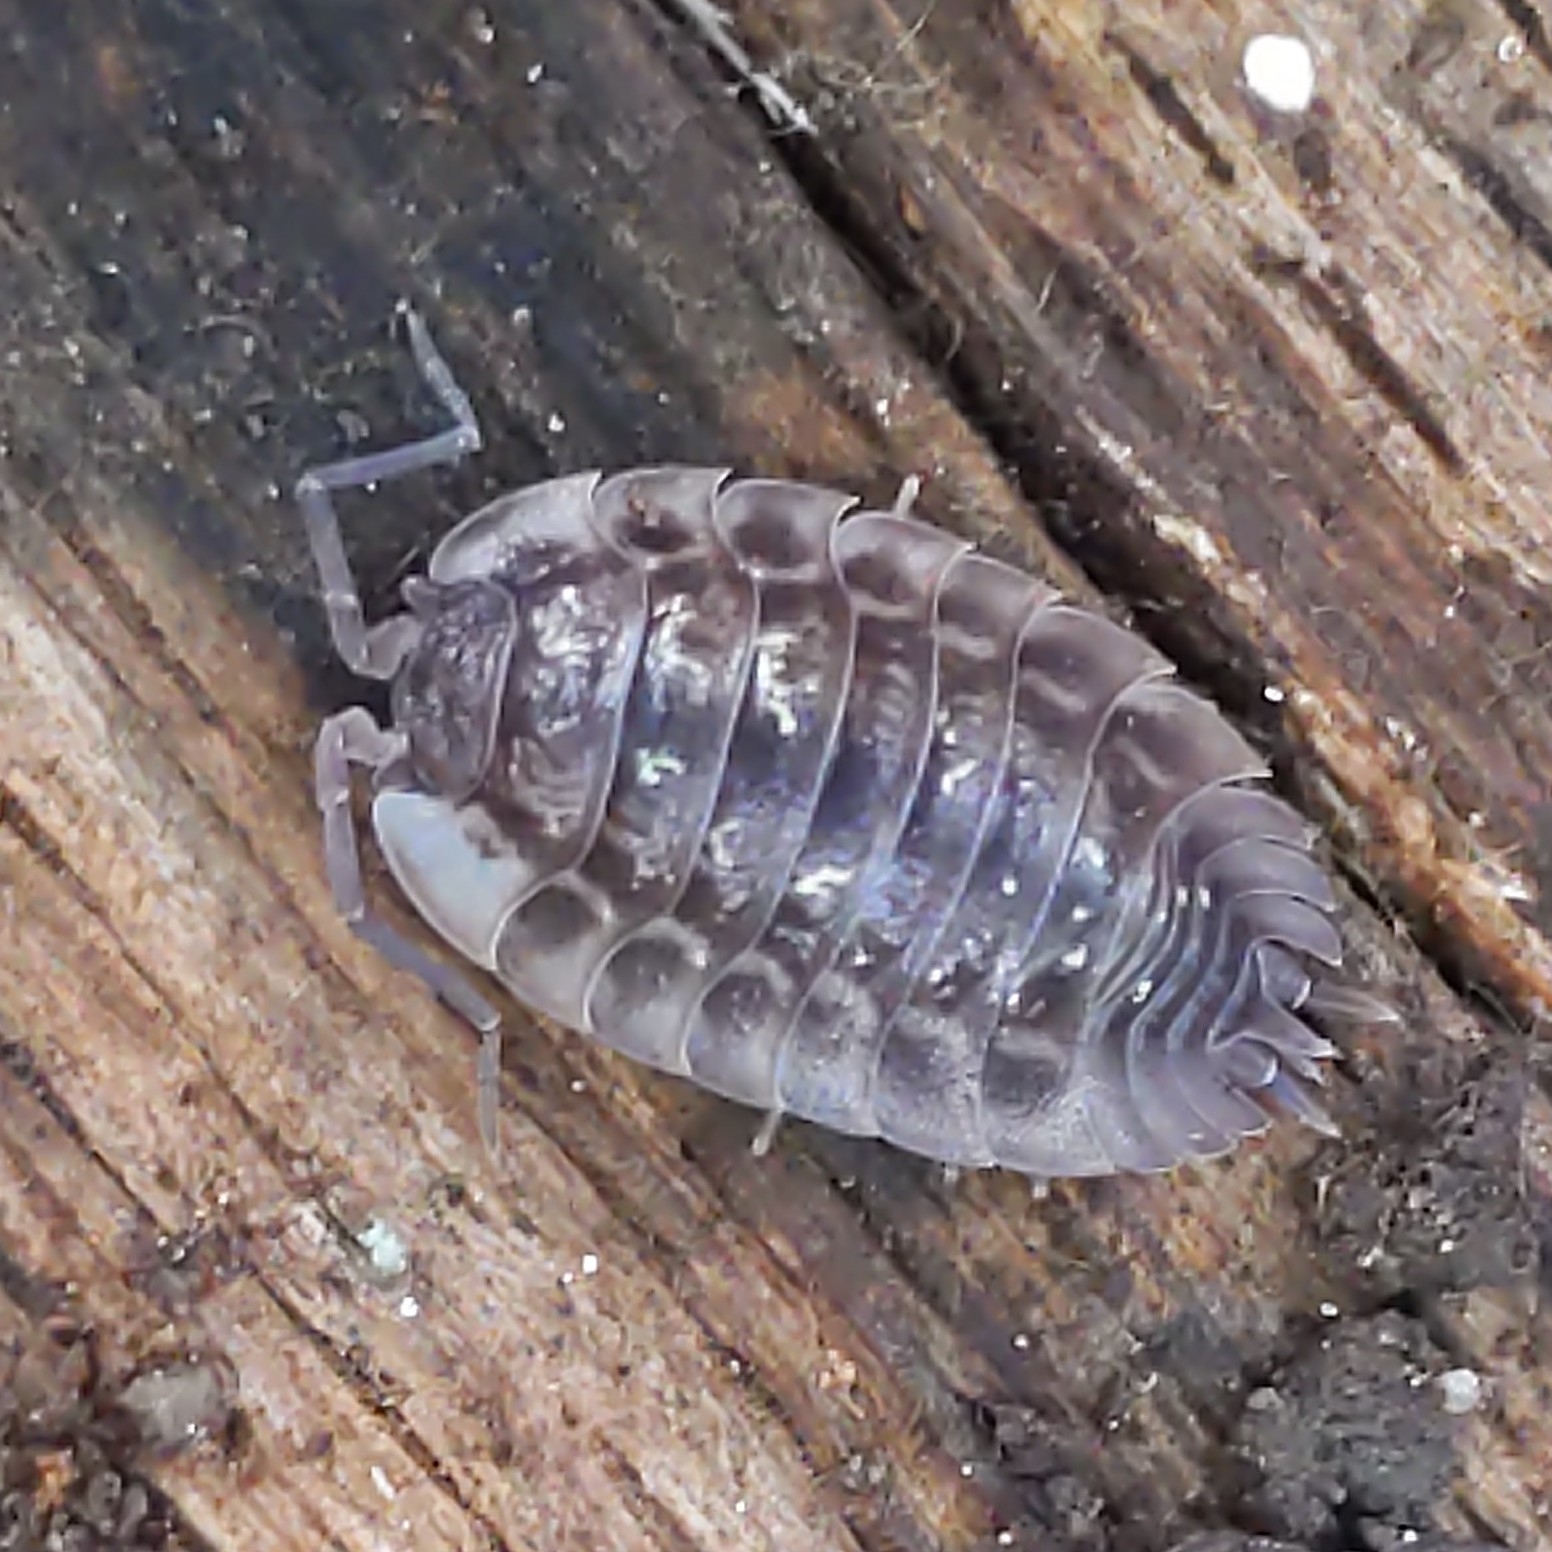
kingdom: Animalia
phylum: Arthropoda
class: Malacostraca
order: Isopoda
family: Oniscidae
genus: Oniscus
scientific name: Oniscus asellus
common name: Common shiny woodlouse
